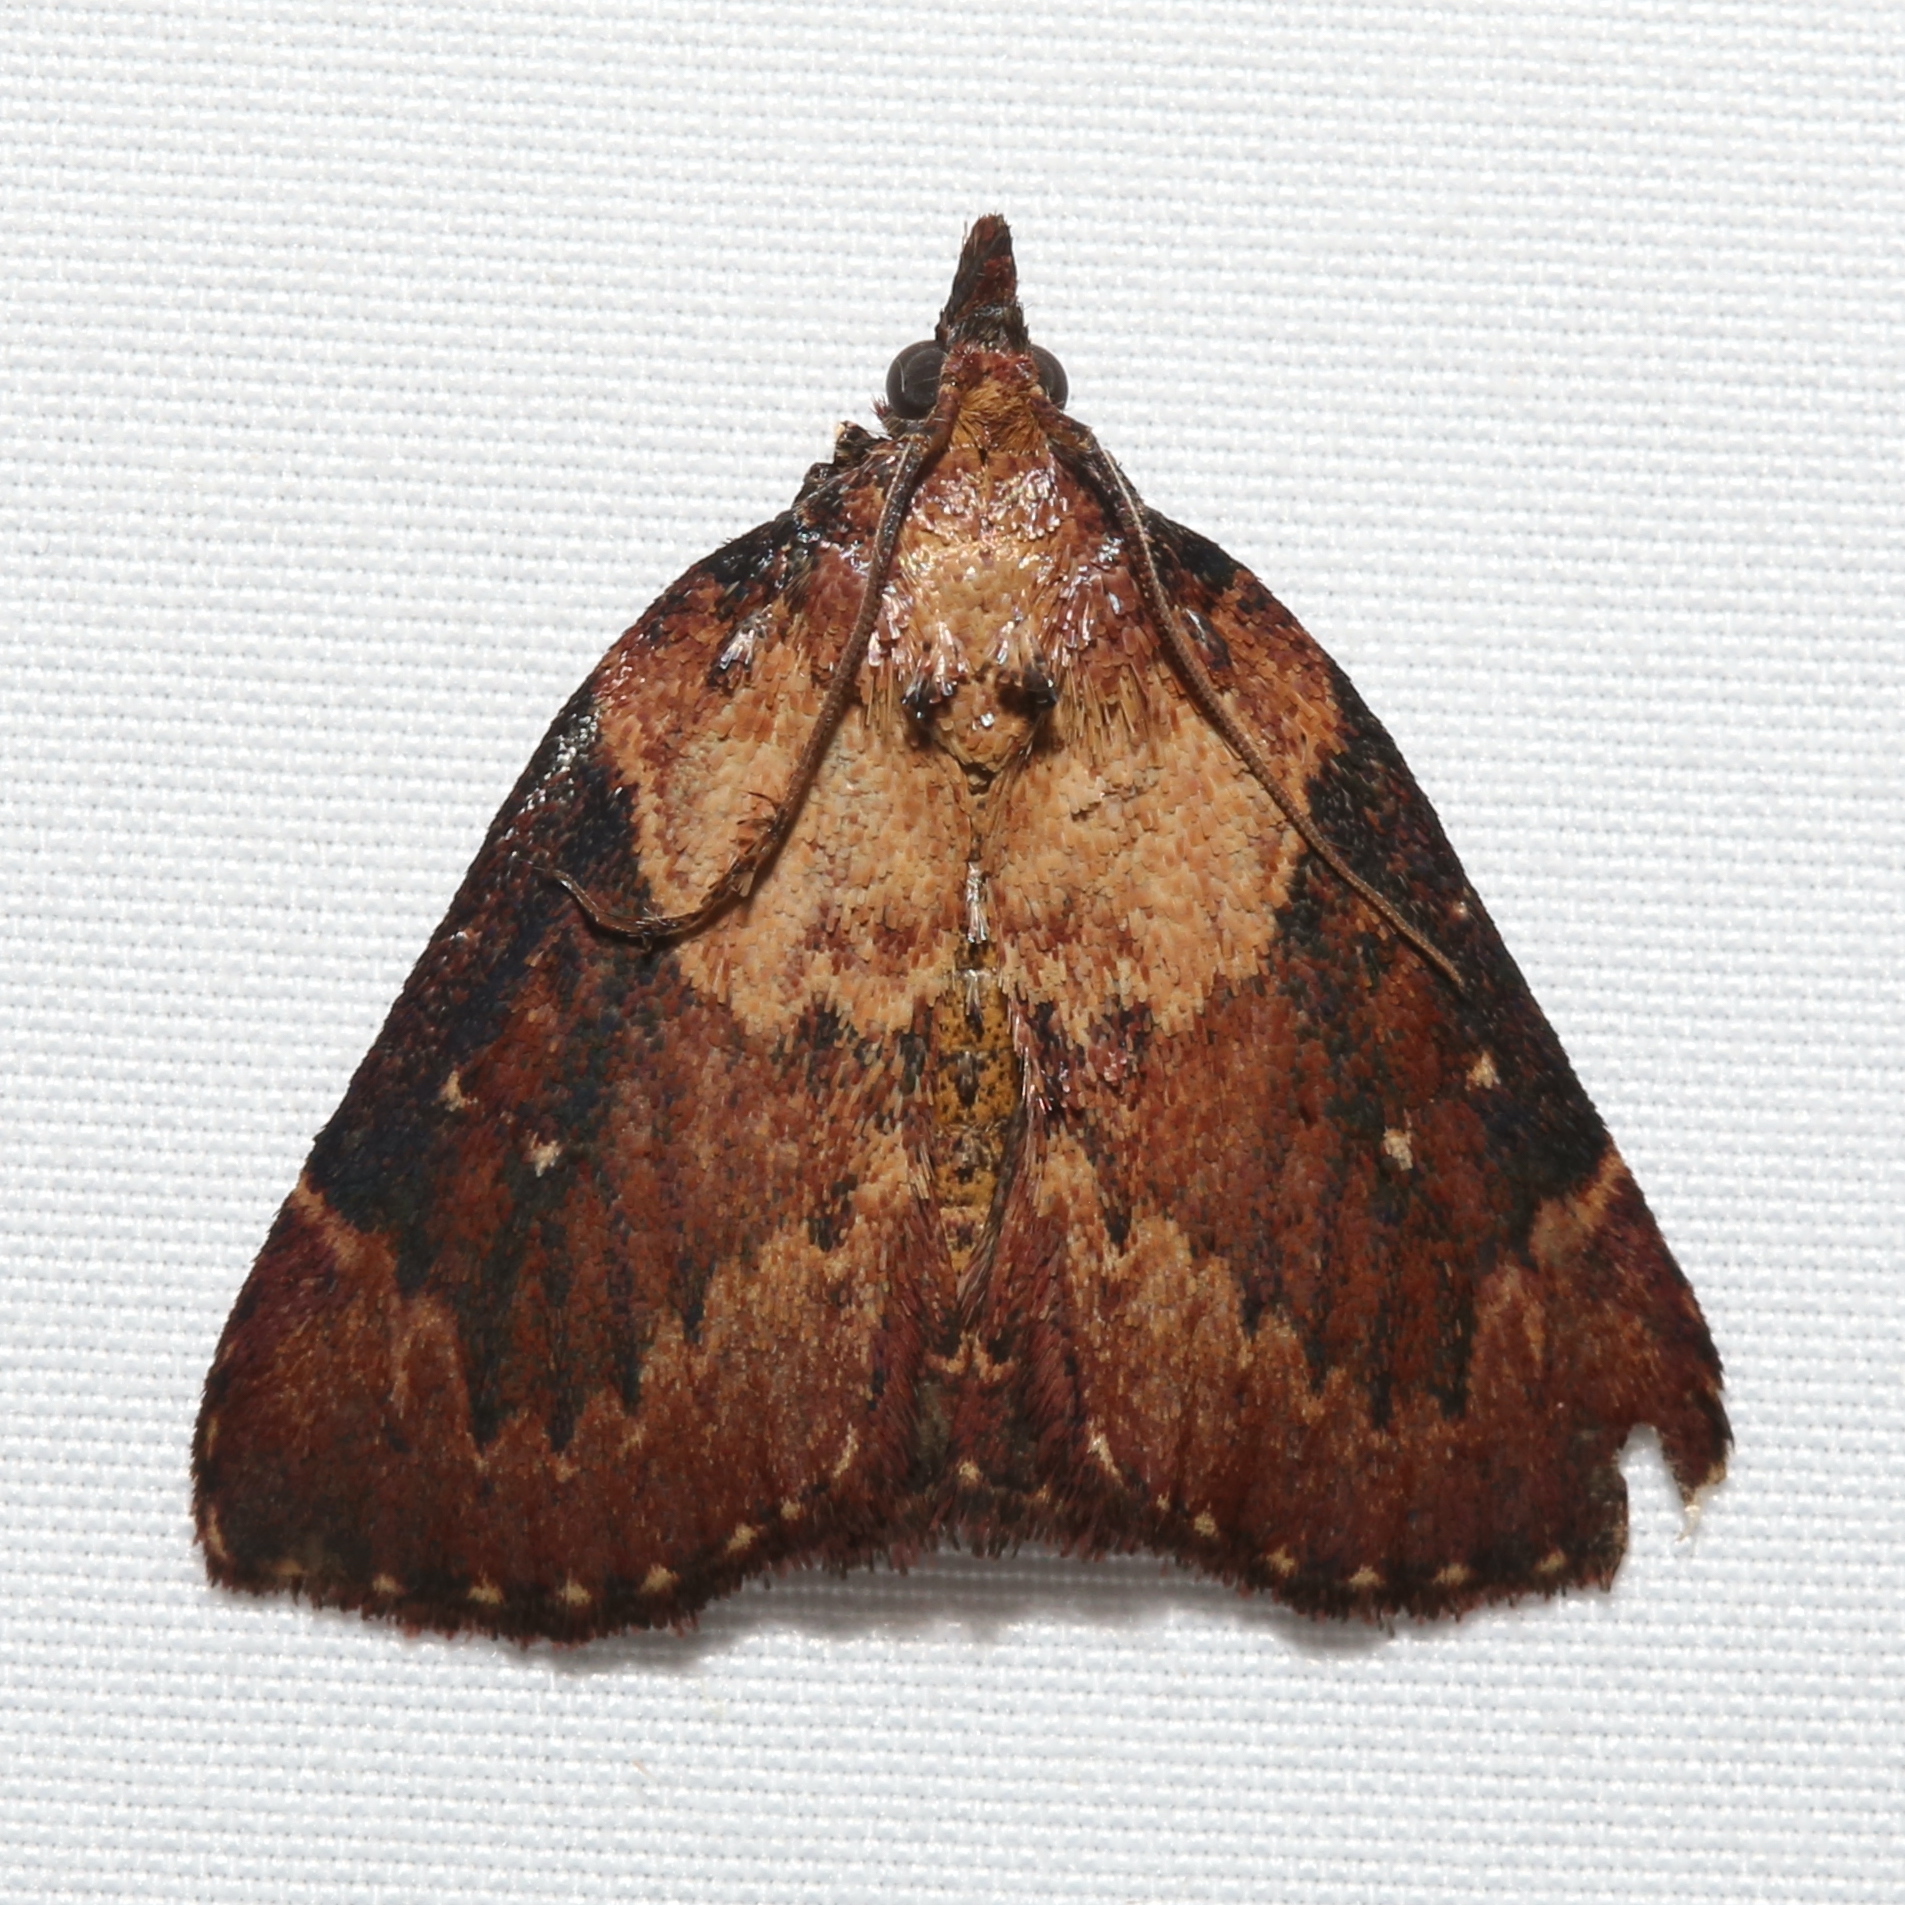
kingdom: Animalia
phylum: Arthropoda
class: Insecta
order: Lepidoptera
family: Pyralidae
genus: Omphalocera
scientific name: Omphalocera munroei
